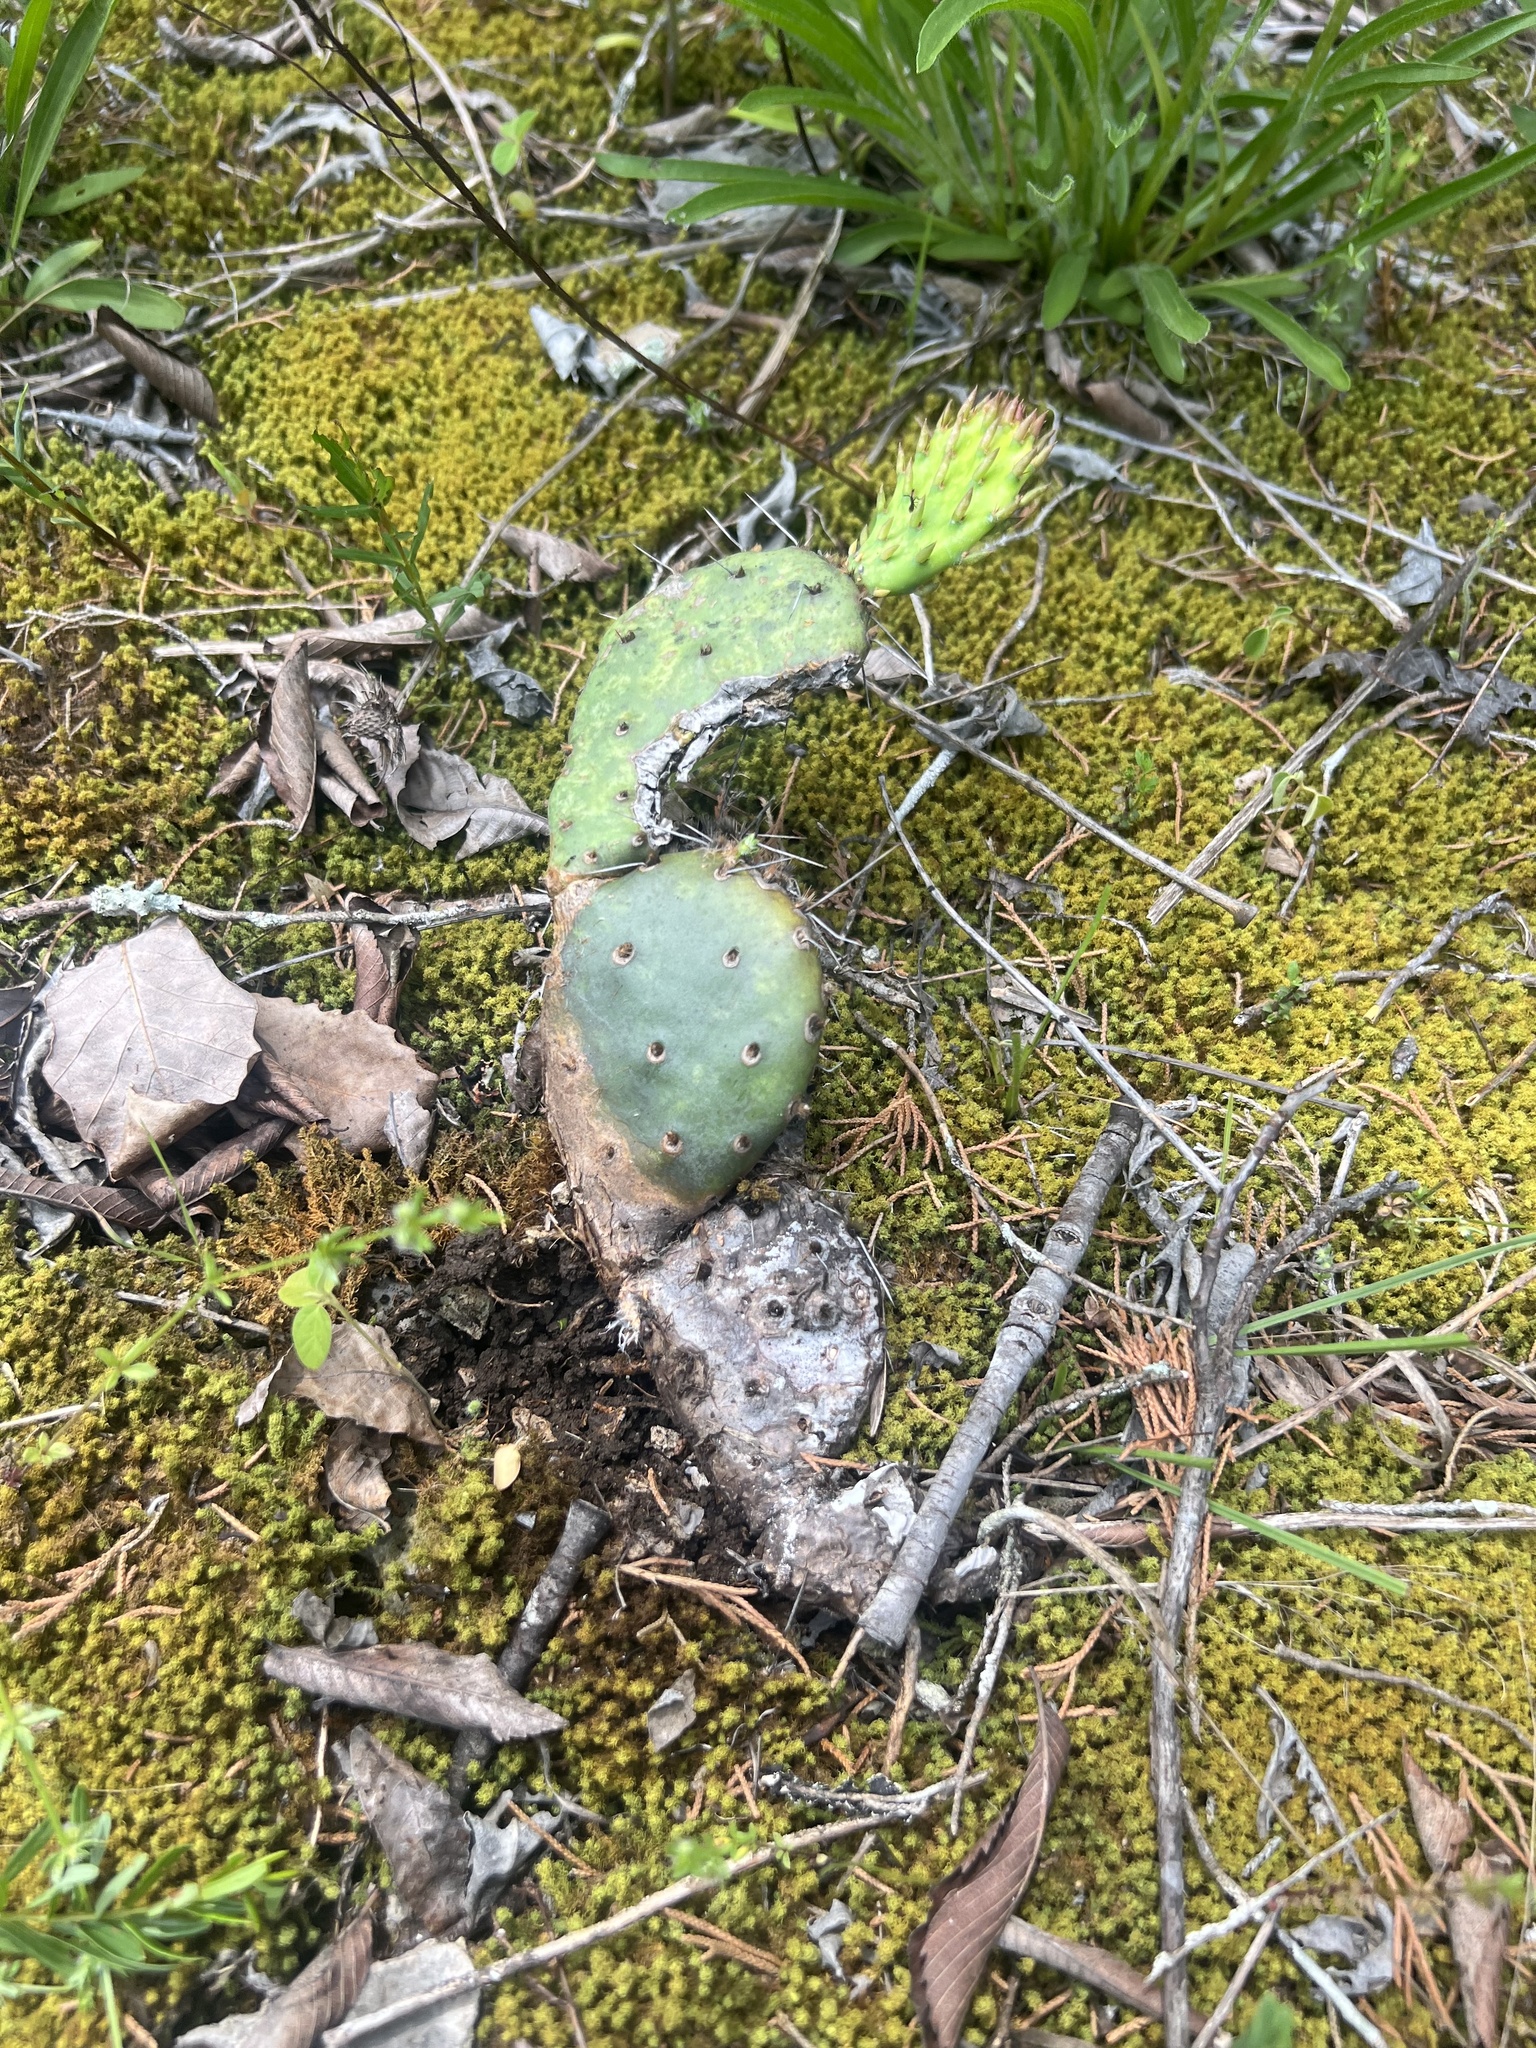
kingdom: Plantae
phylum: Tracheophyta
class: Magnoliopsida
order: Caryophyllales
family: Cactaceae
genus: Opuntia
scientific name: Opuntia humifusa
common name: Eastern prickly-pear
